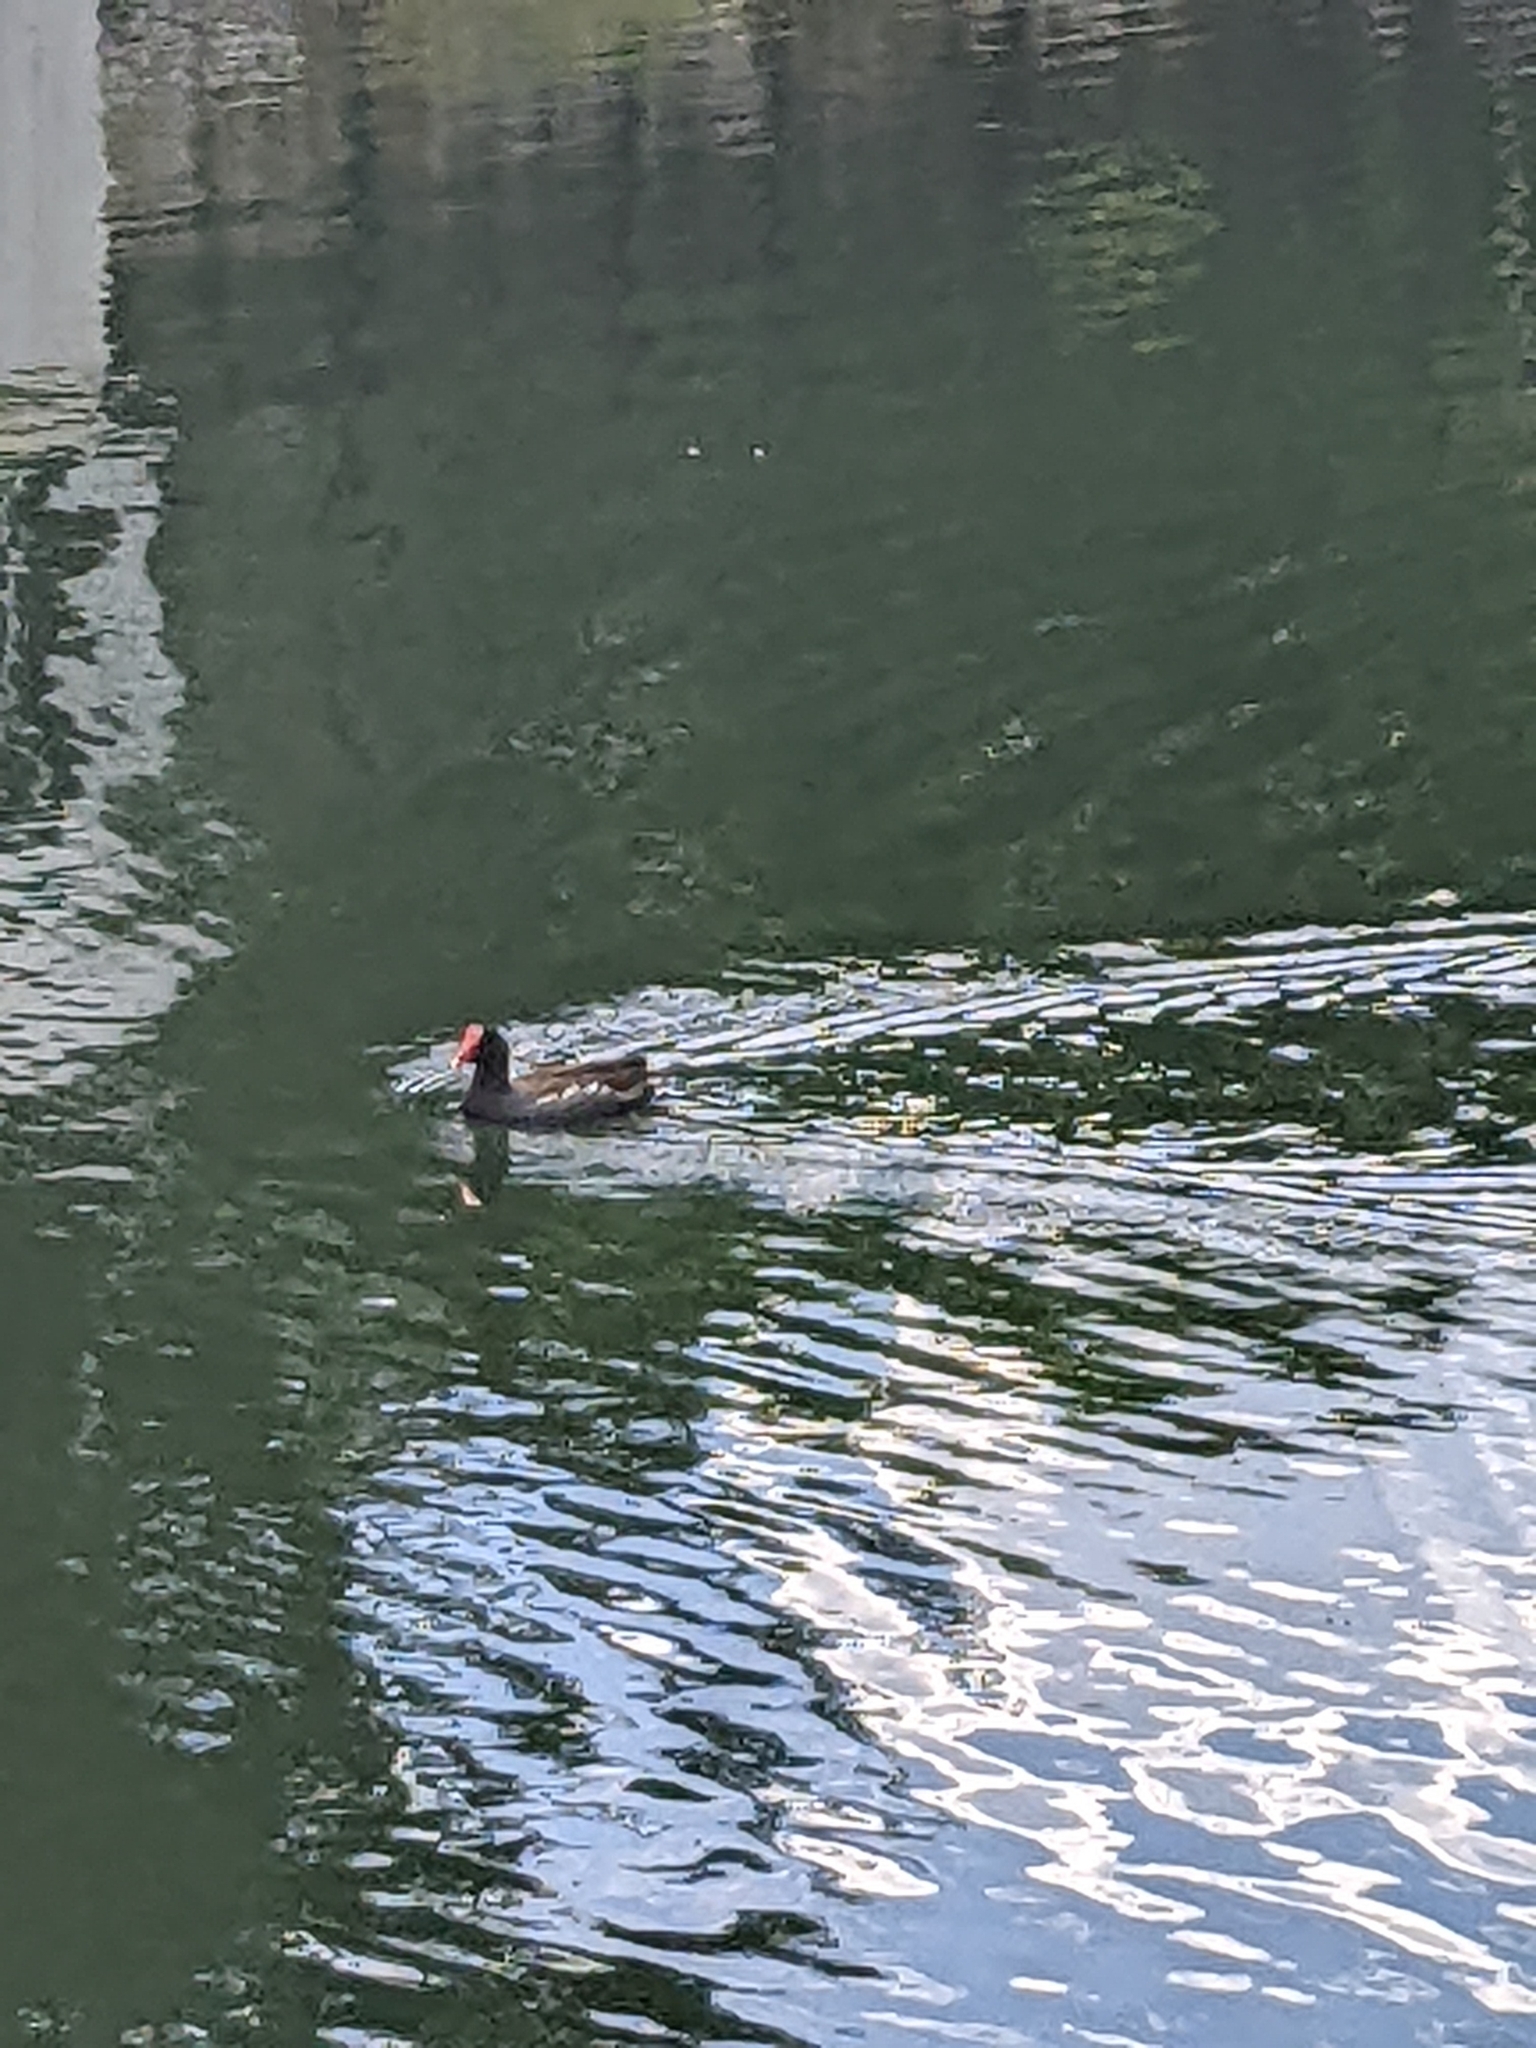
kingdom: Animalia
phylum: Chordata
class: Aves
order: Gruiformes
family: Rallidae
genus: Gallinula
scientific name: Gallinula chloropus
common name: Common moorhen
